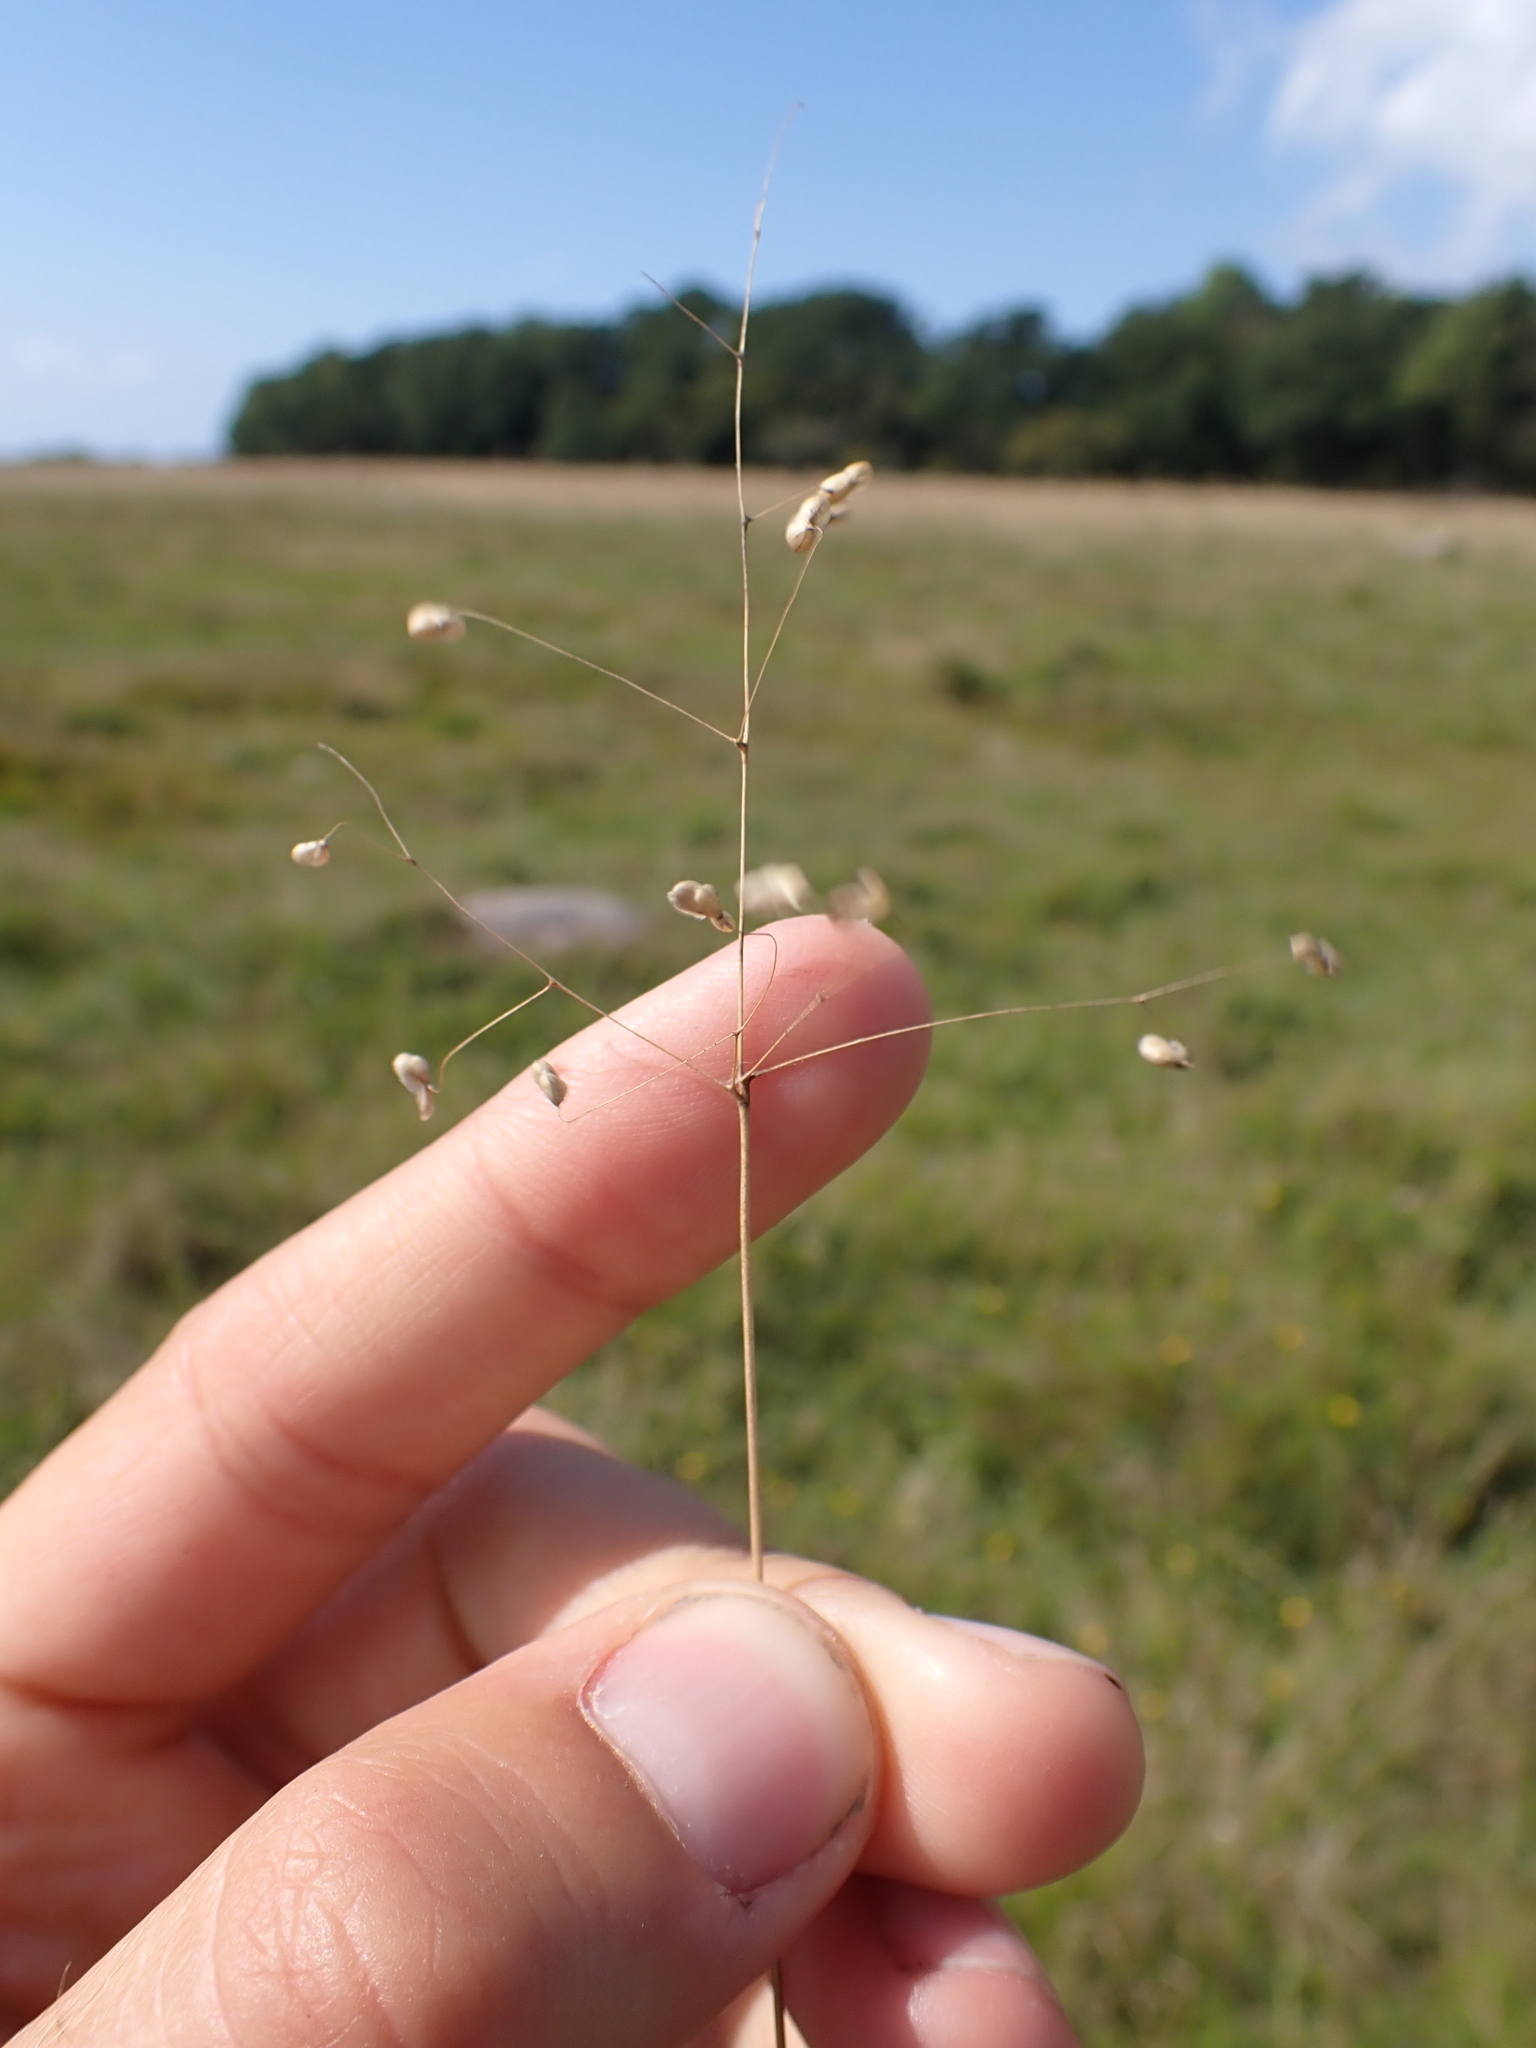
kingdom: Plantae
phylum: Tracheophyta
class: Liliopsida
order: Poales
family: Poaceae
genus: Briza
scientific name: Briza media
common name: Quaking grass
